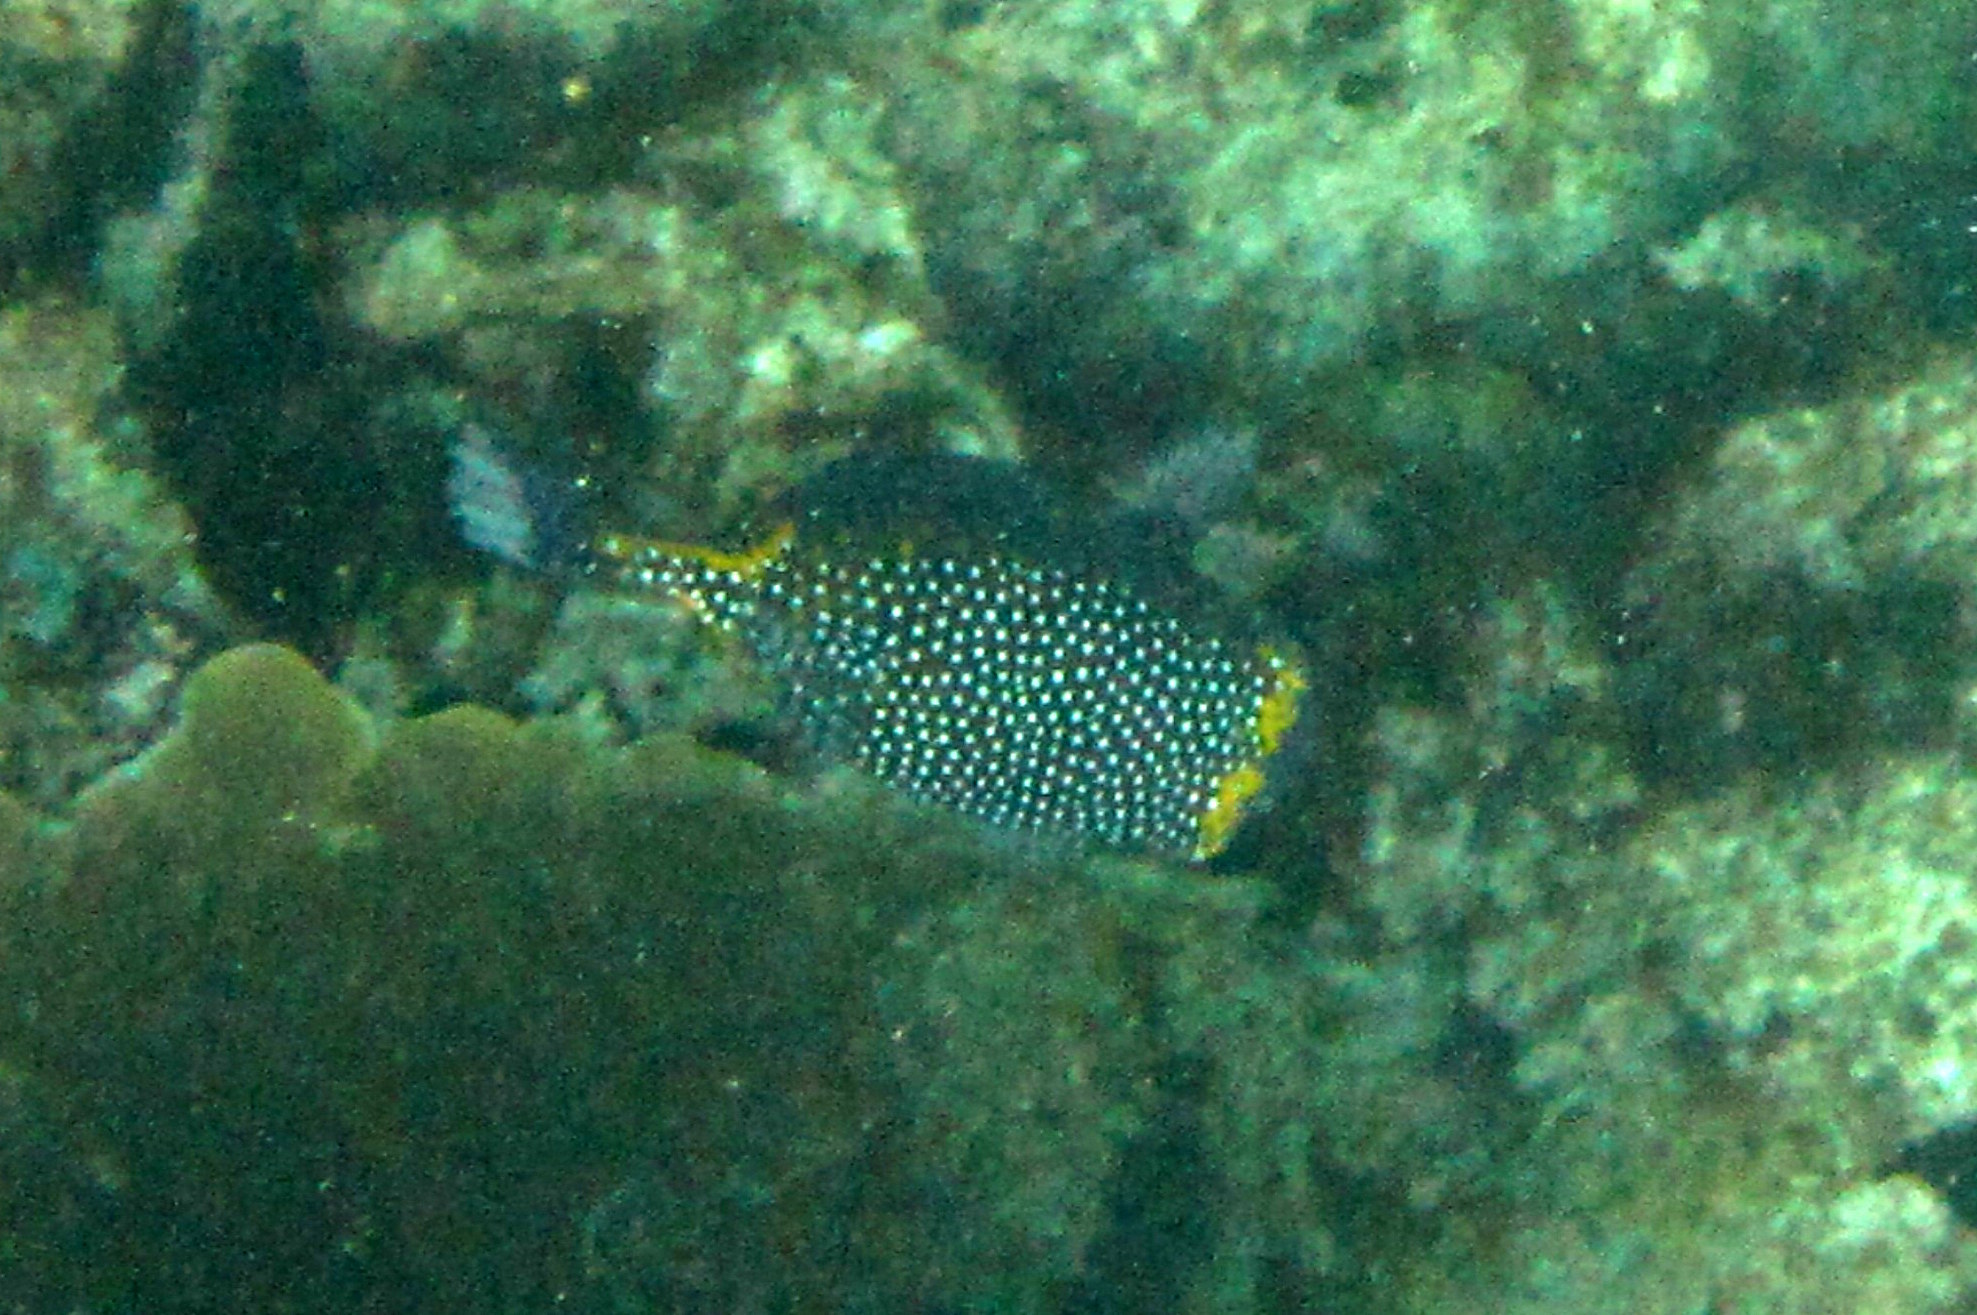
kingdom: Animalia
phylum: Chordata
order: Tetraodontiformes
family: Ostraciidae
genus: Ostracion
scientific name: Ostracion meleagris
